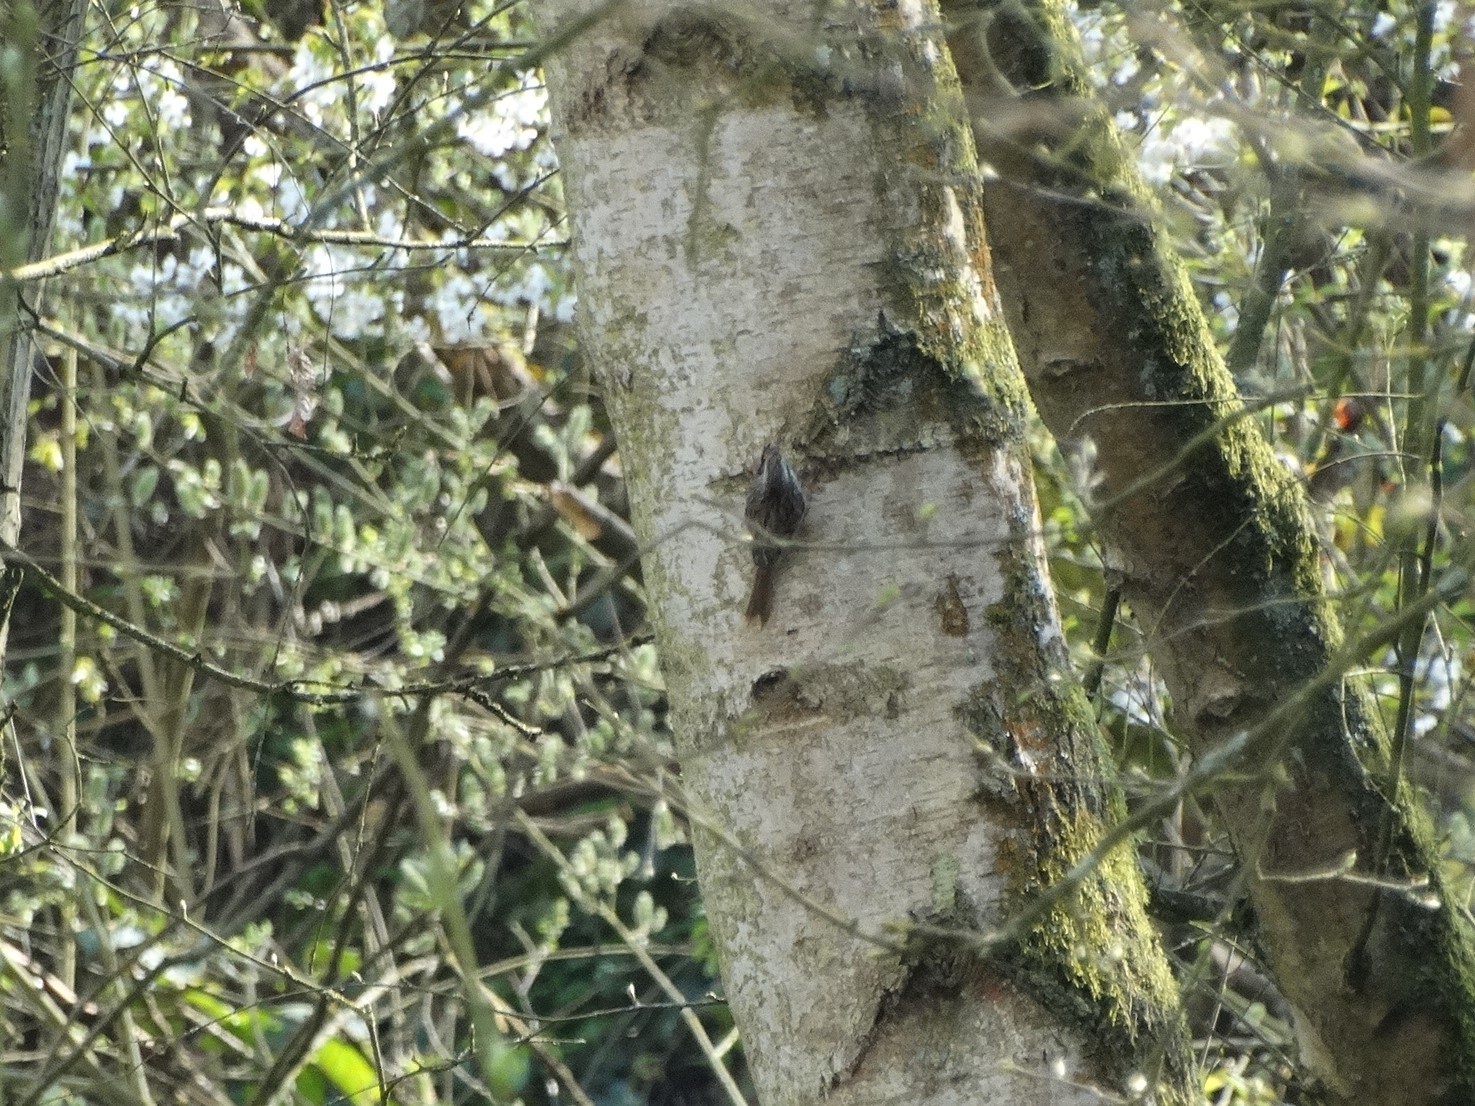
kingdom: Animalia
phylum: Chordata
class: Aves
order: Passeriformes
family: Certhiidae
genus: Certhia
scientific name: Certhia brachydactyla
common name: Short-toed treecreeper
